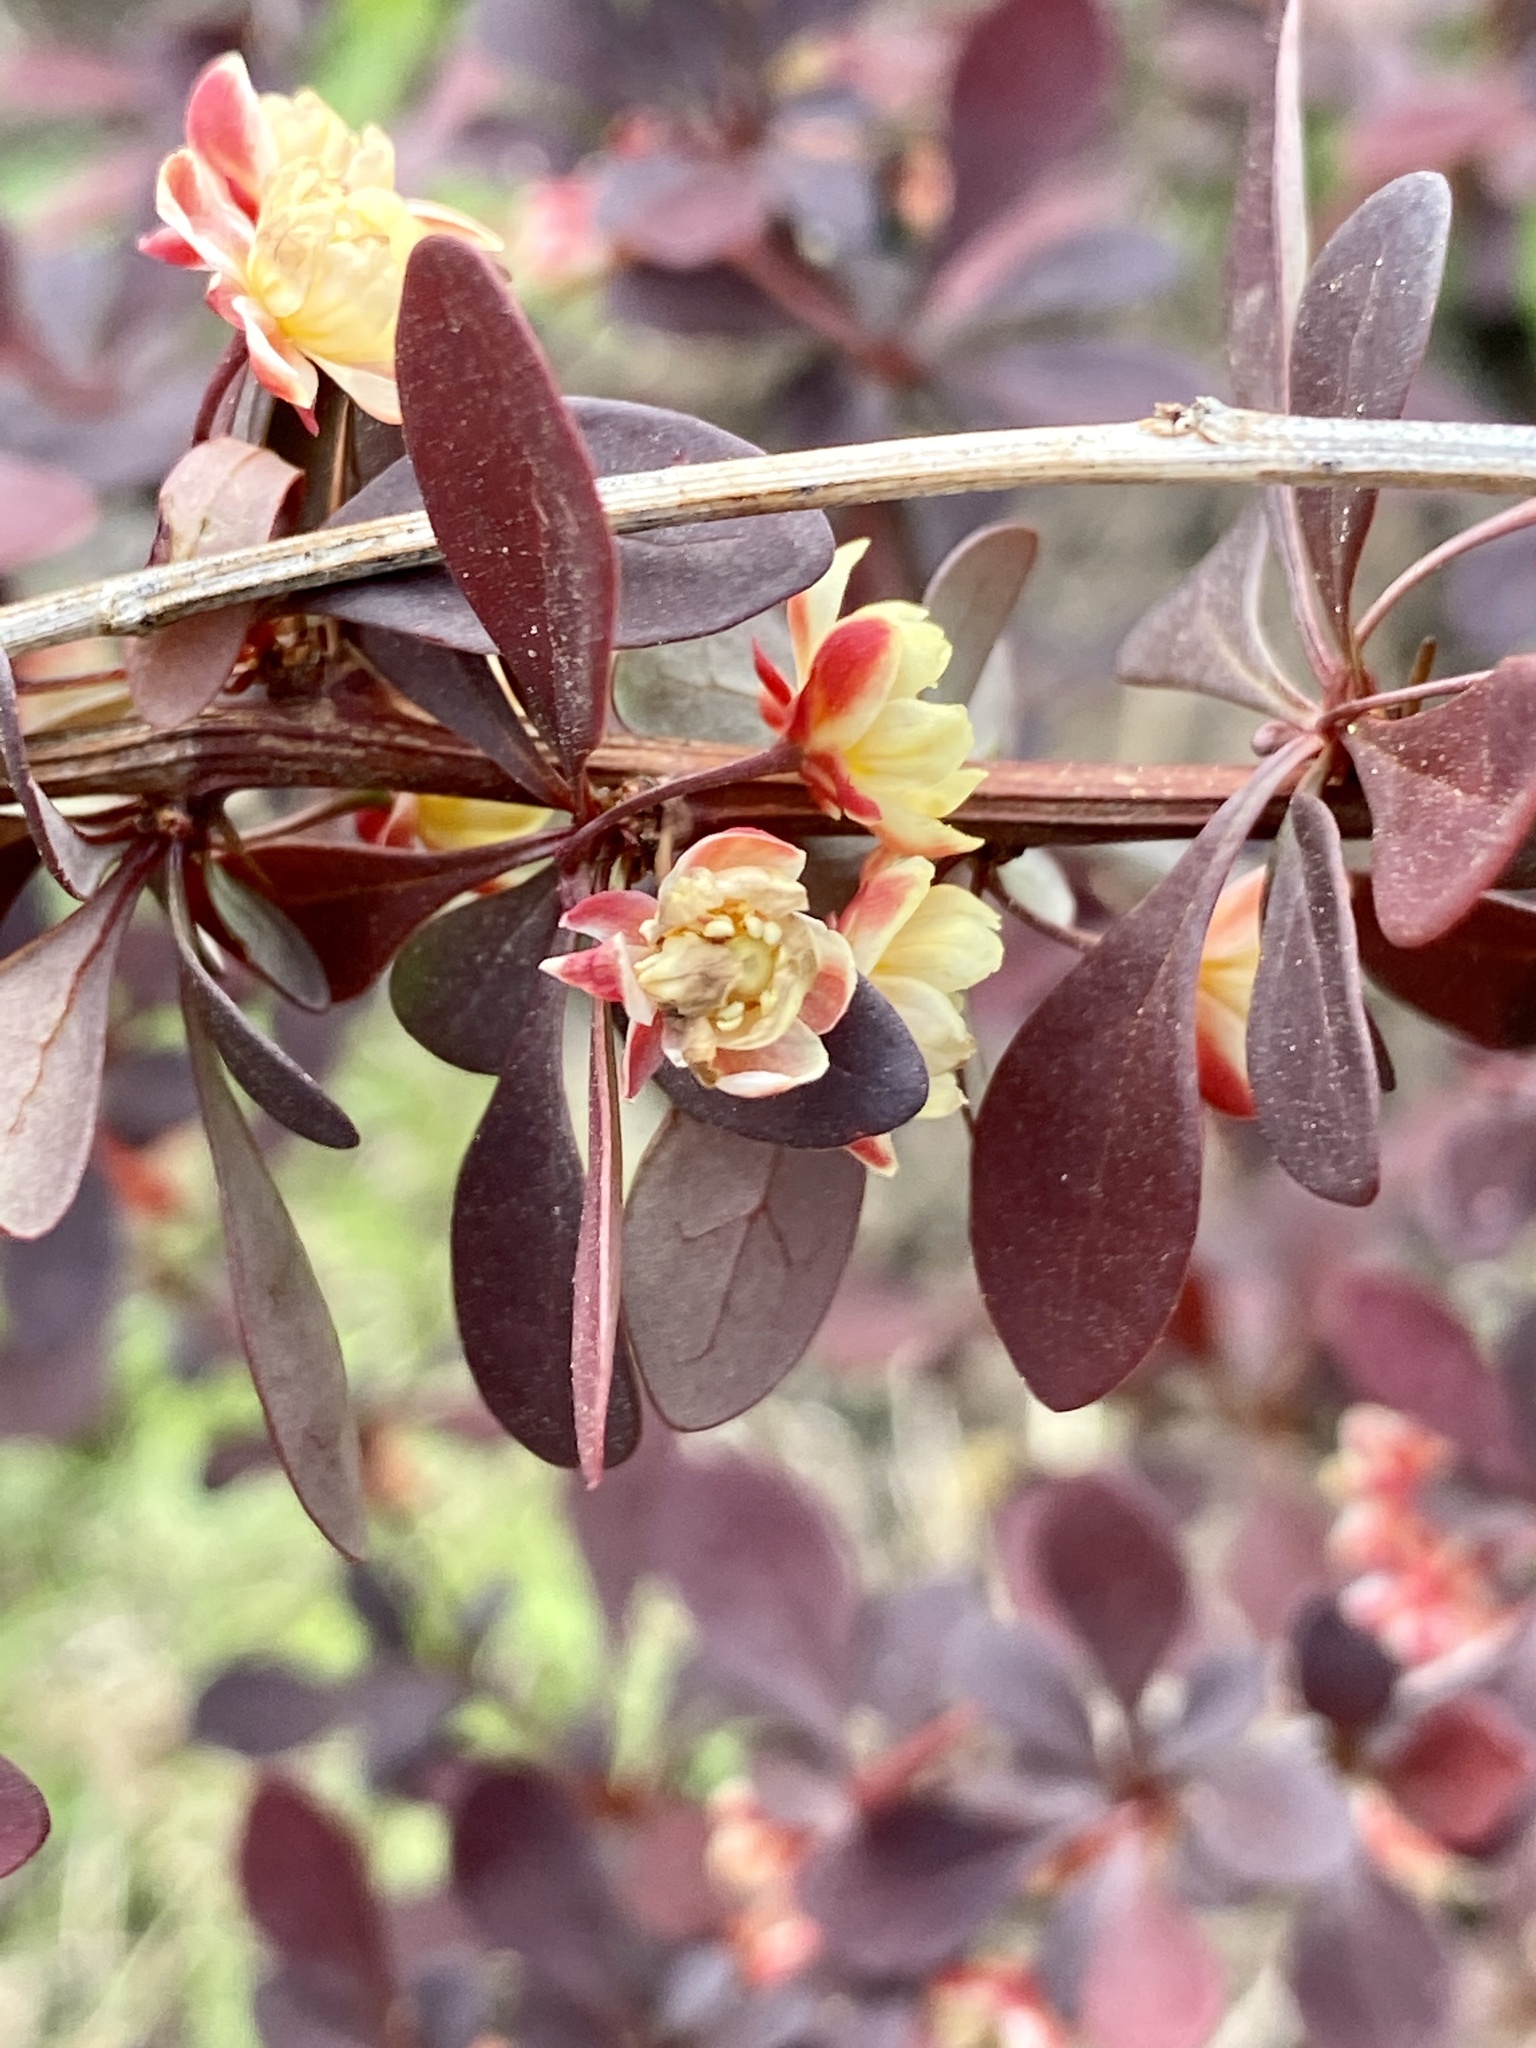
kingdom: Plantae
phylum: Tracheophyta
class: Magnoliopsida
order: Ranunculales
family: Berberidaceae
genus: Berberis
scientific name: Berberis thunbergii
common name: Japanese barberry
